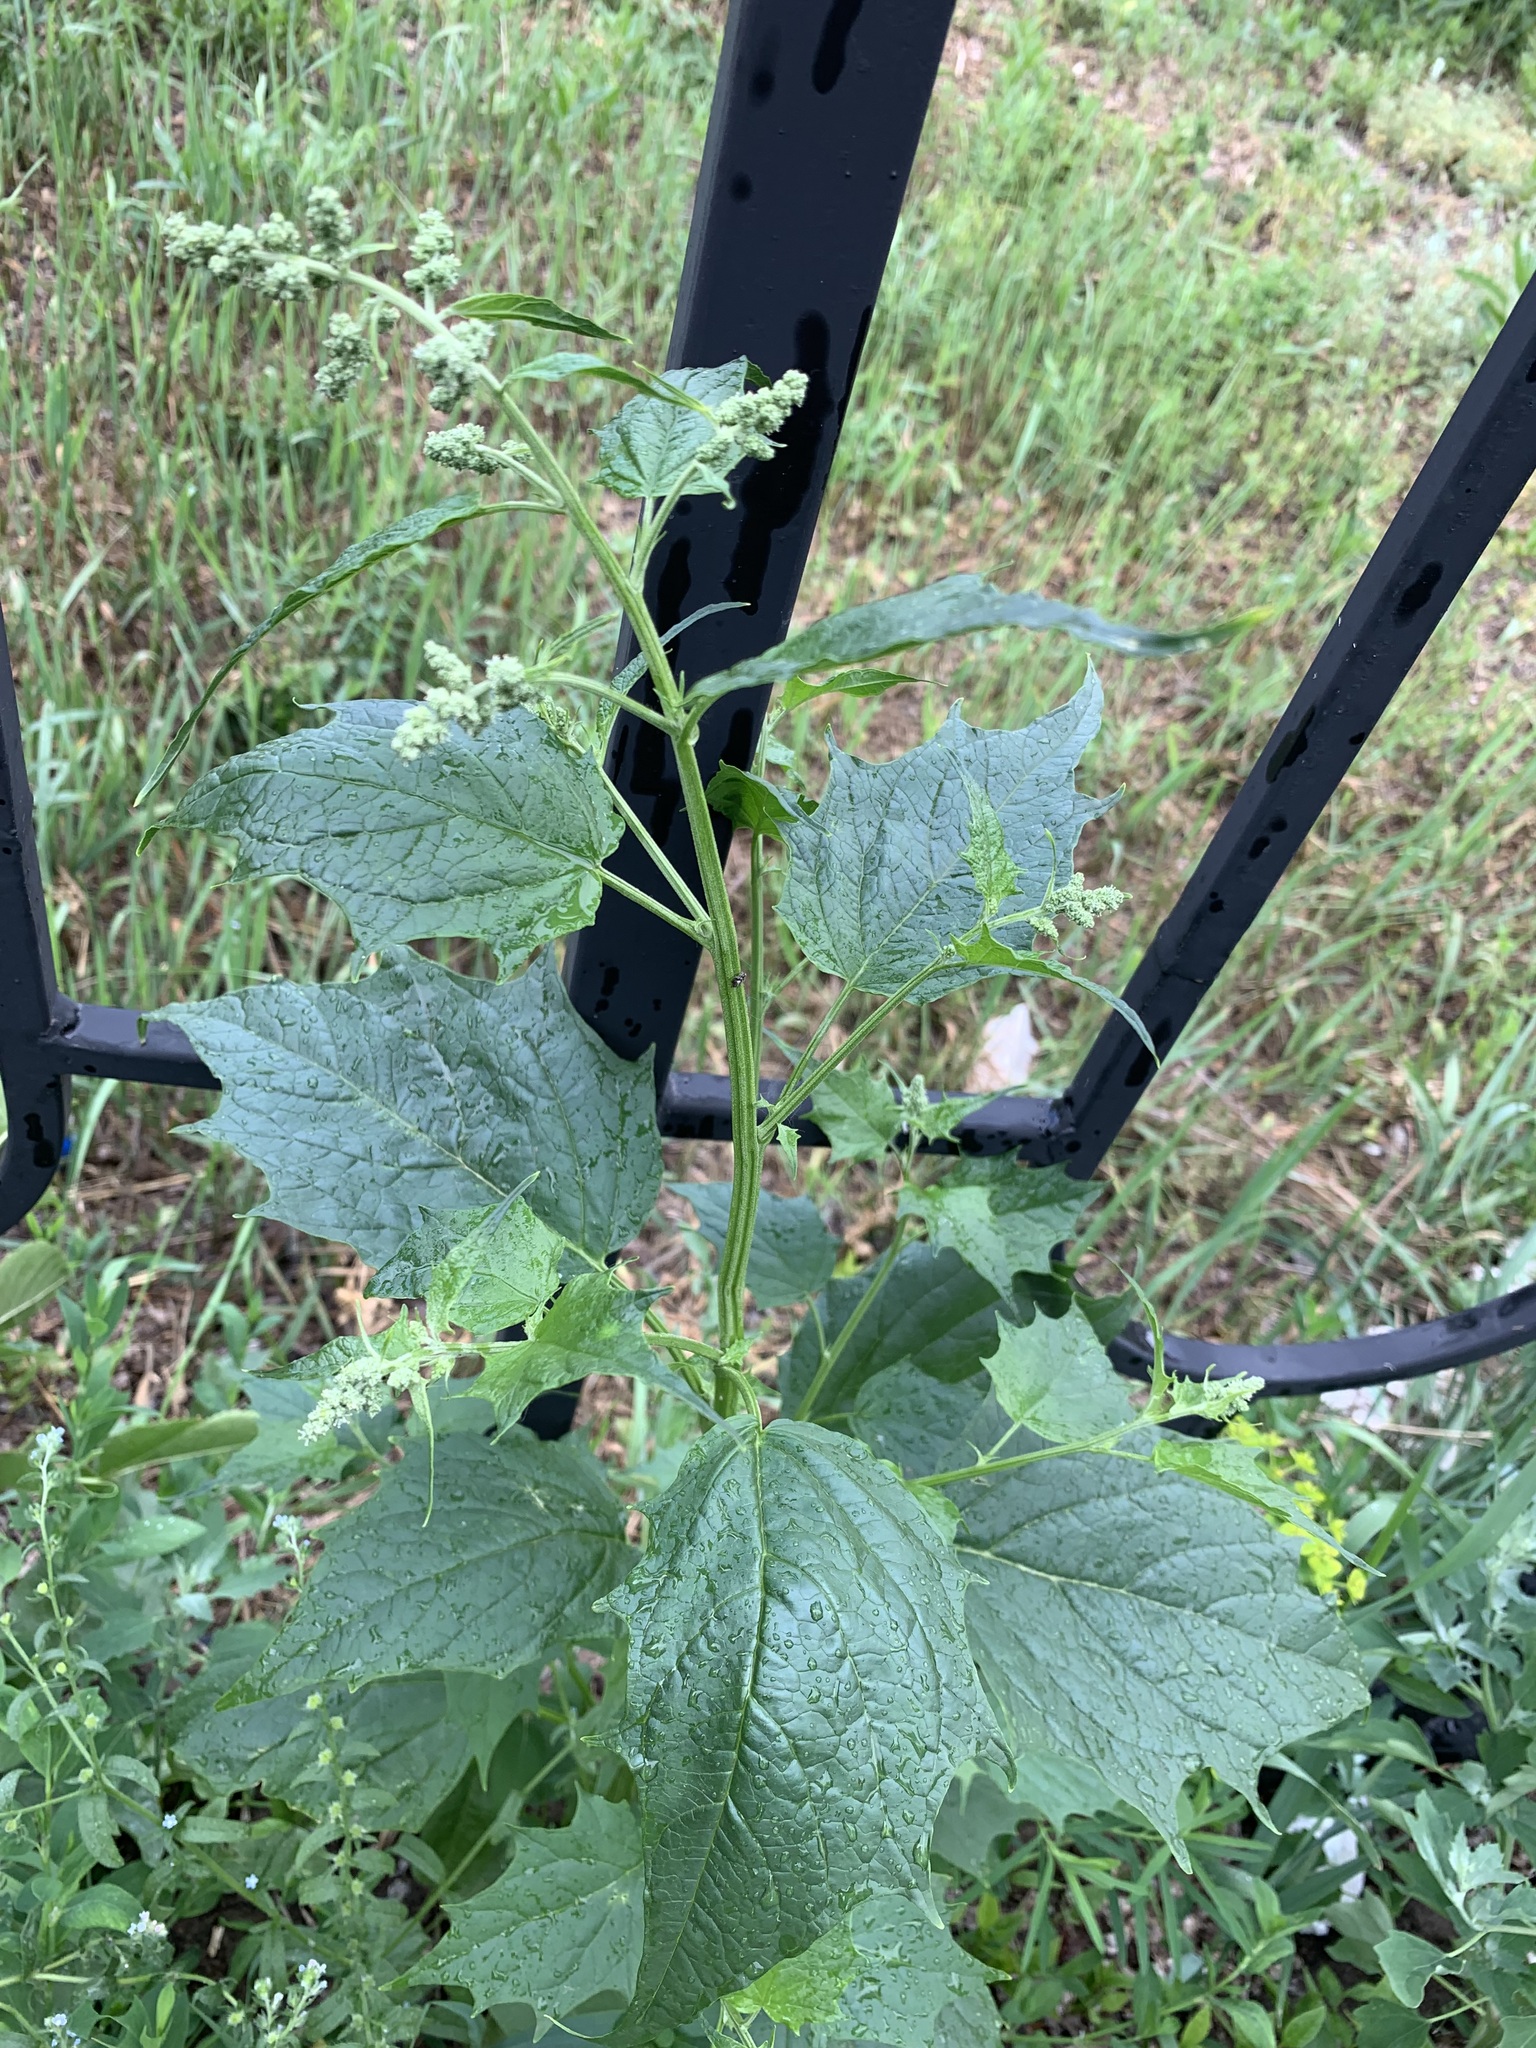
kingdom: Plantae
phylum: Tracheophyta
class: Magnoliopsida
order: Caryophyllales
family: Amaranthaceae
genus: Chenopodiastrum
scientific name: Chenopodiastrum hybridum
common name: Mapleleaf goosefoot
